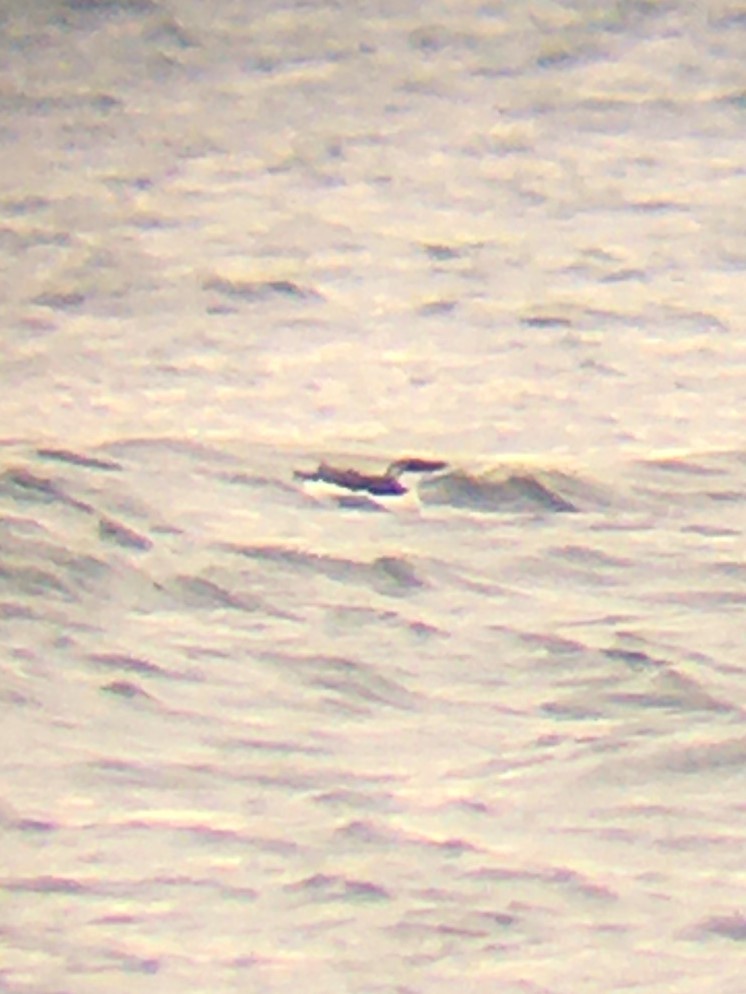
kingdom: Animalia
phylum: Chordata
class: Aves
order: Charadriiformes
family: Alcidae
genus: Alca
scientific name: Alca torda
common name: Razorbill
